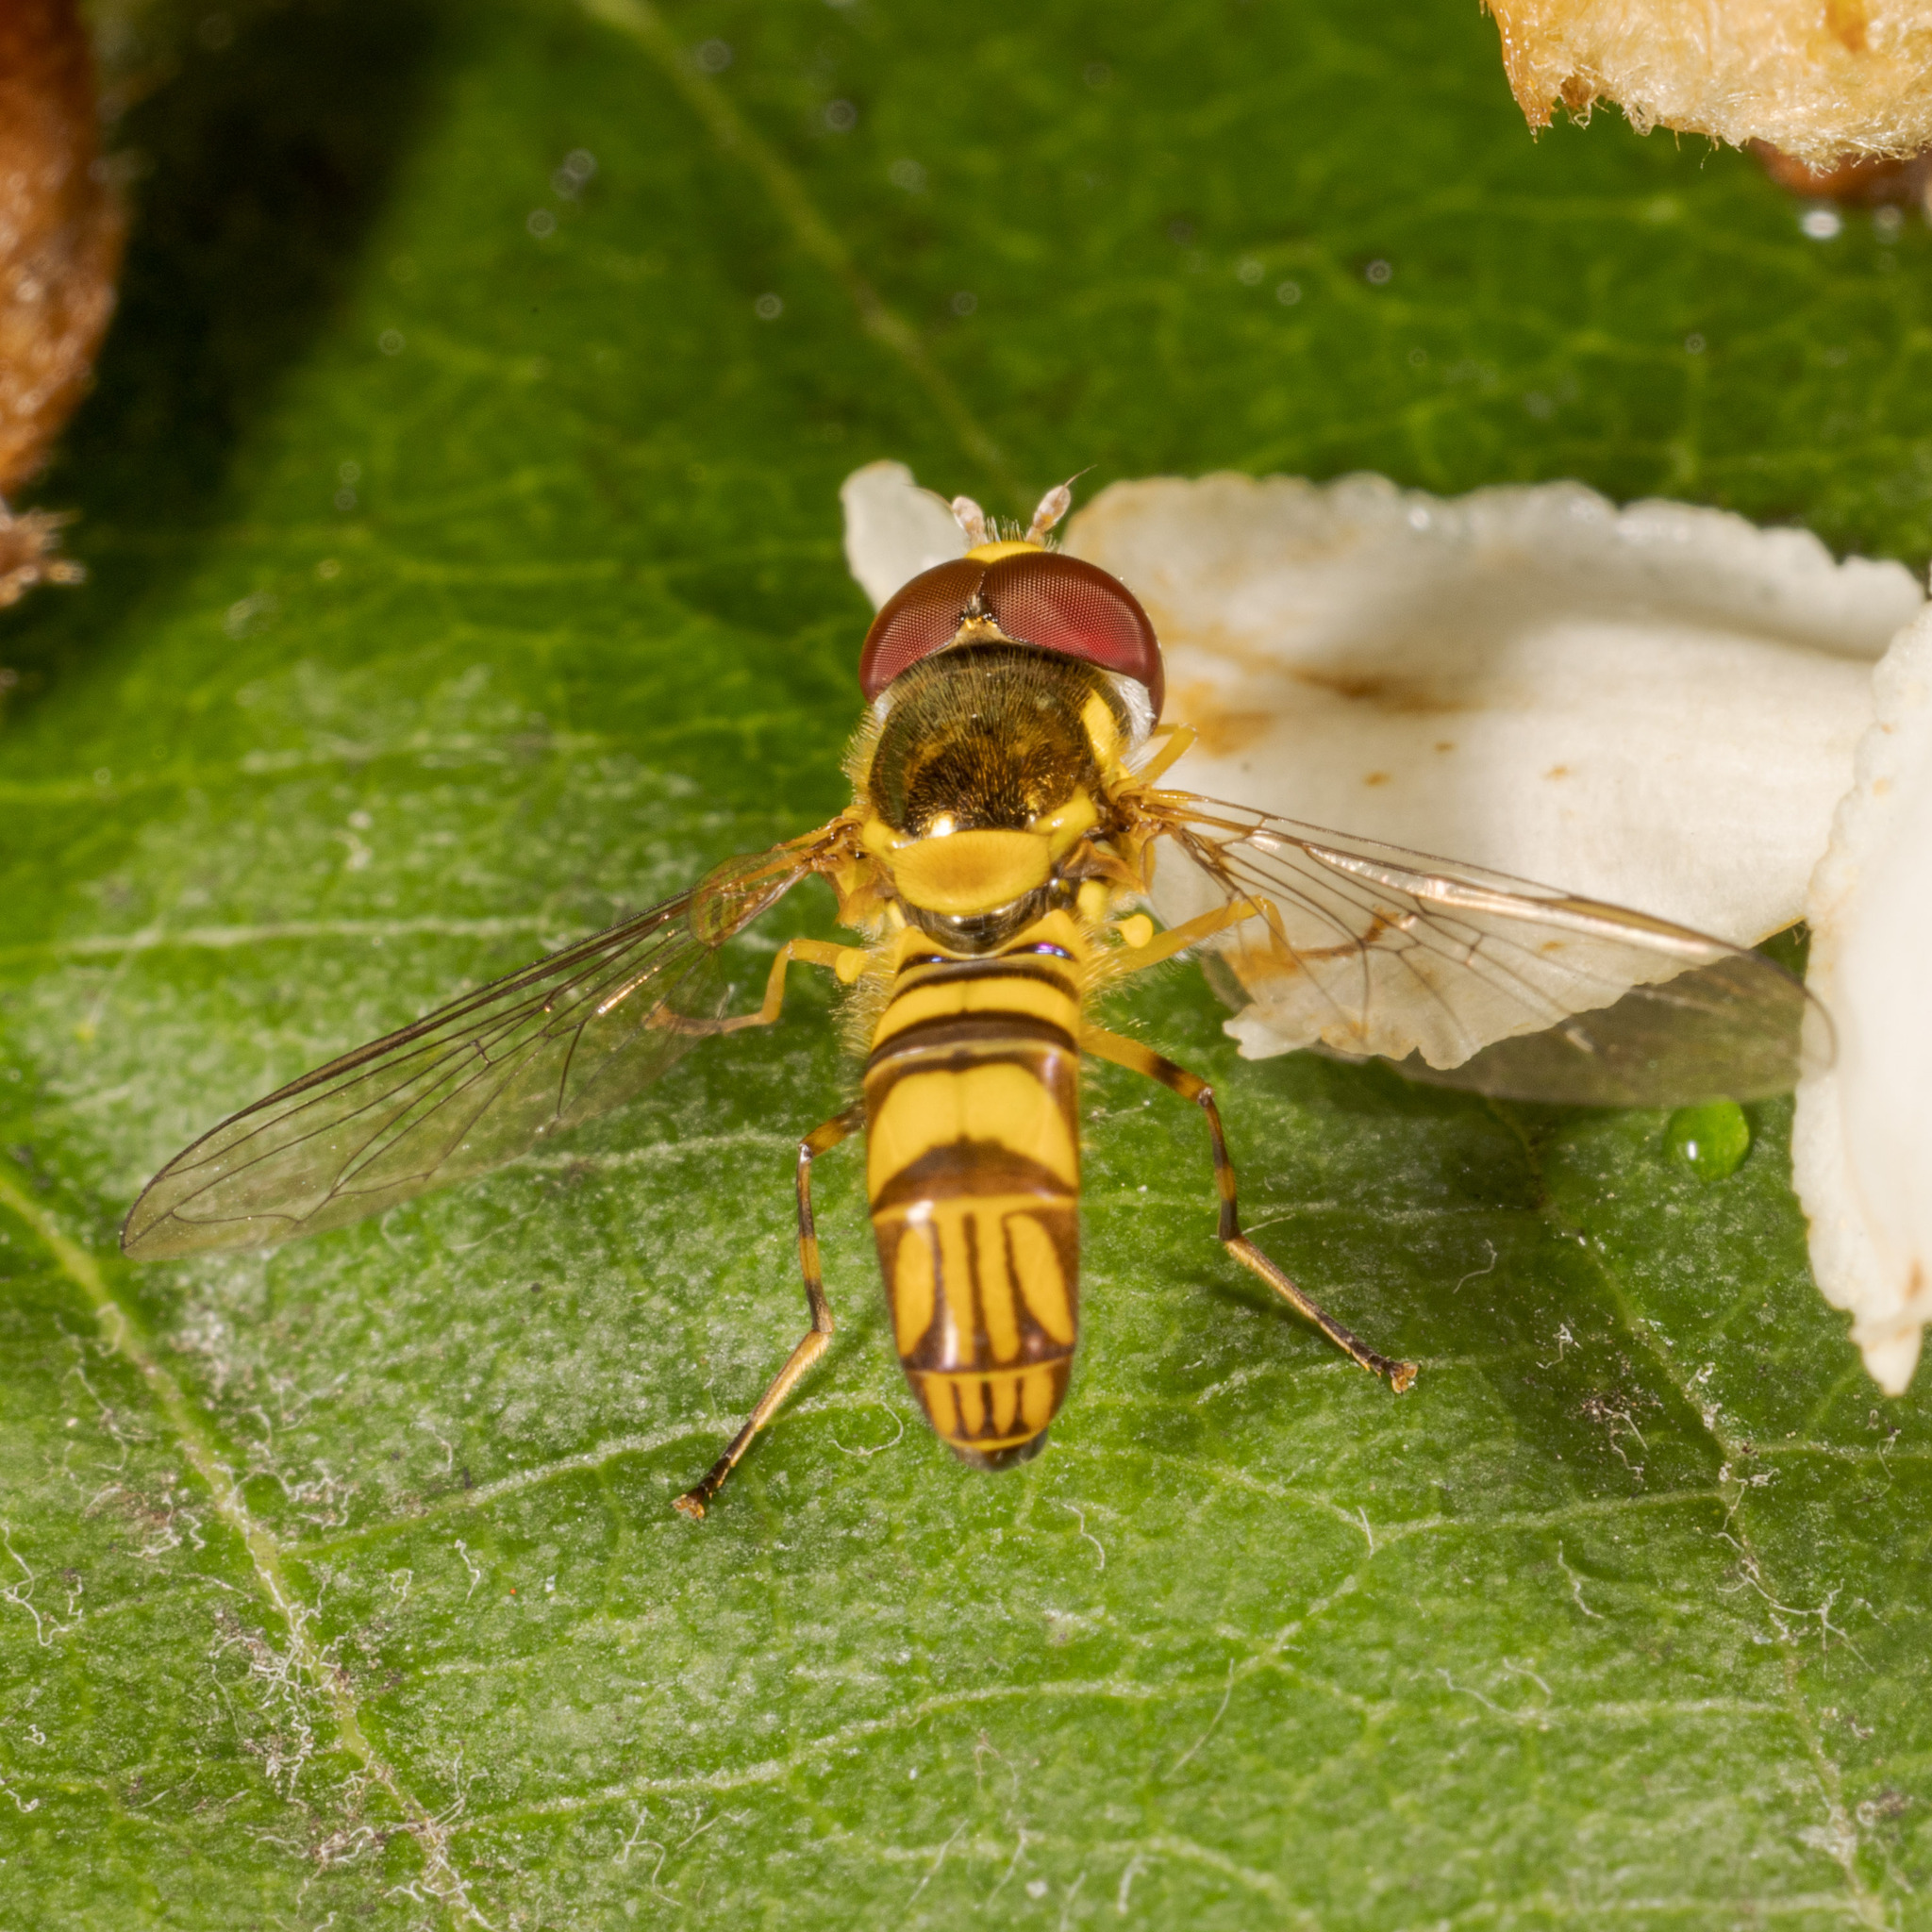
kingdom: Animalia
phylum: Arthropoda
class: Insecta
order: Diptera
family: Syrphidae
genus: Allograpta
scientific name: Allograpta obliqua
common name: Common oblique syrphid
